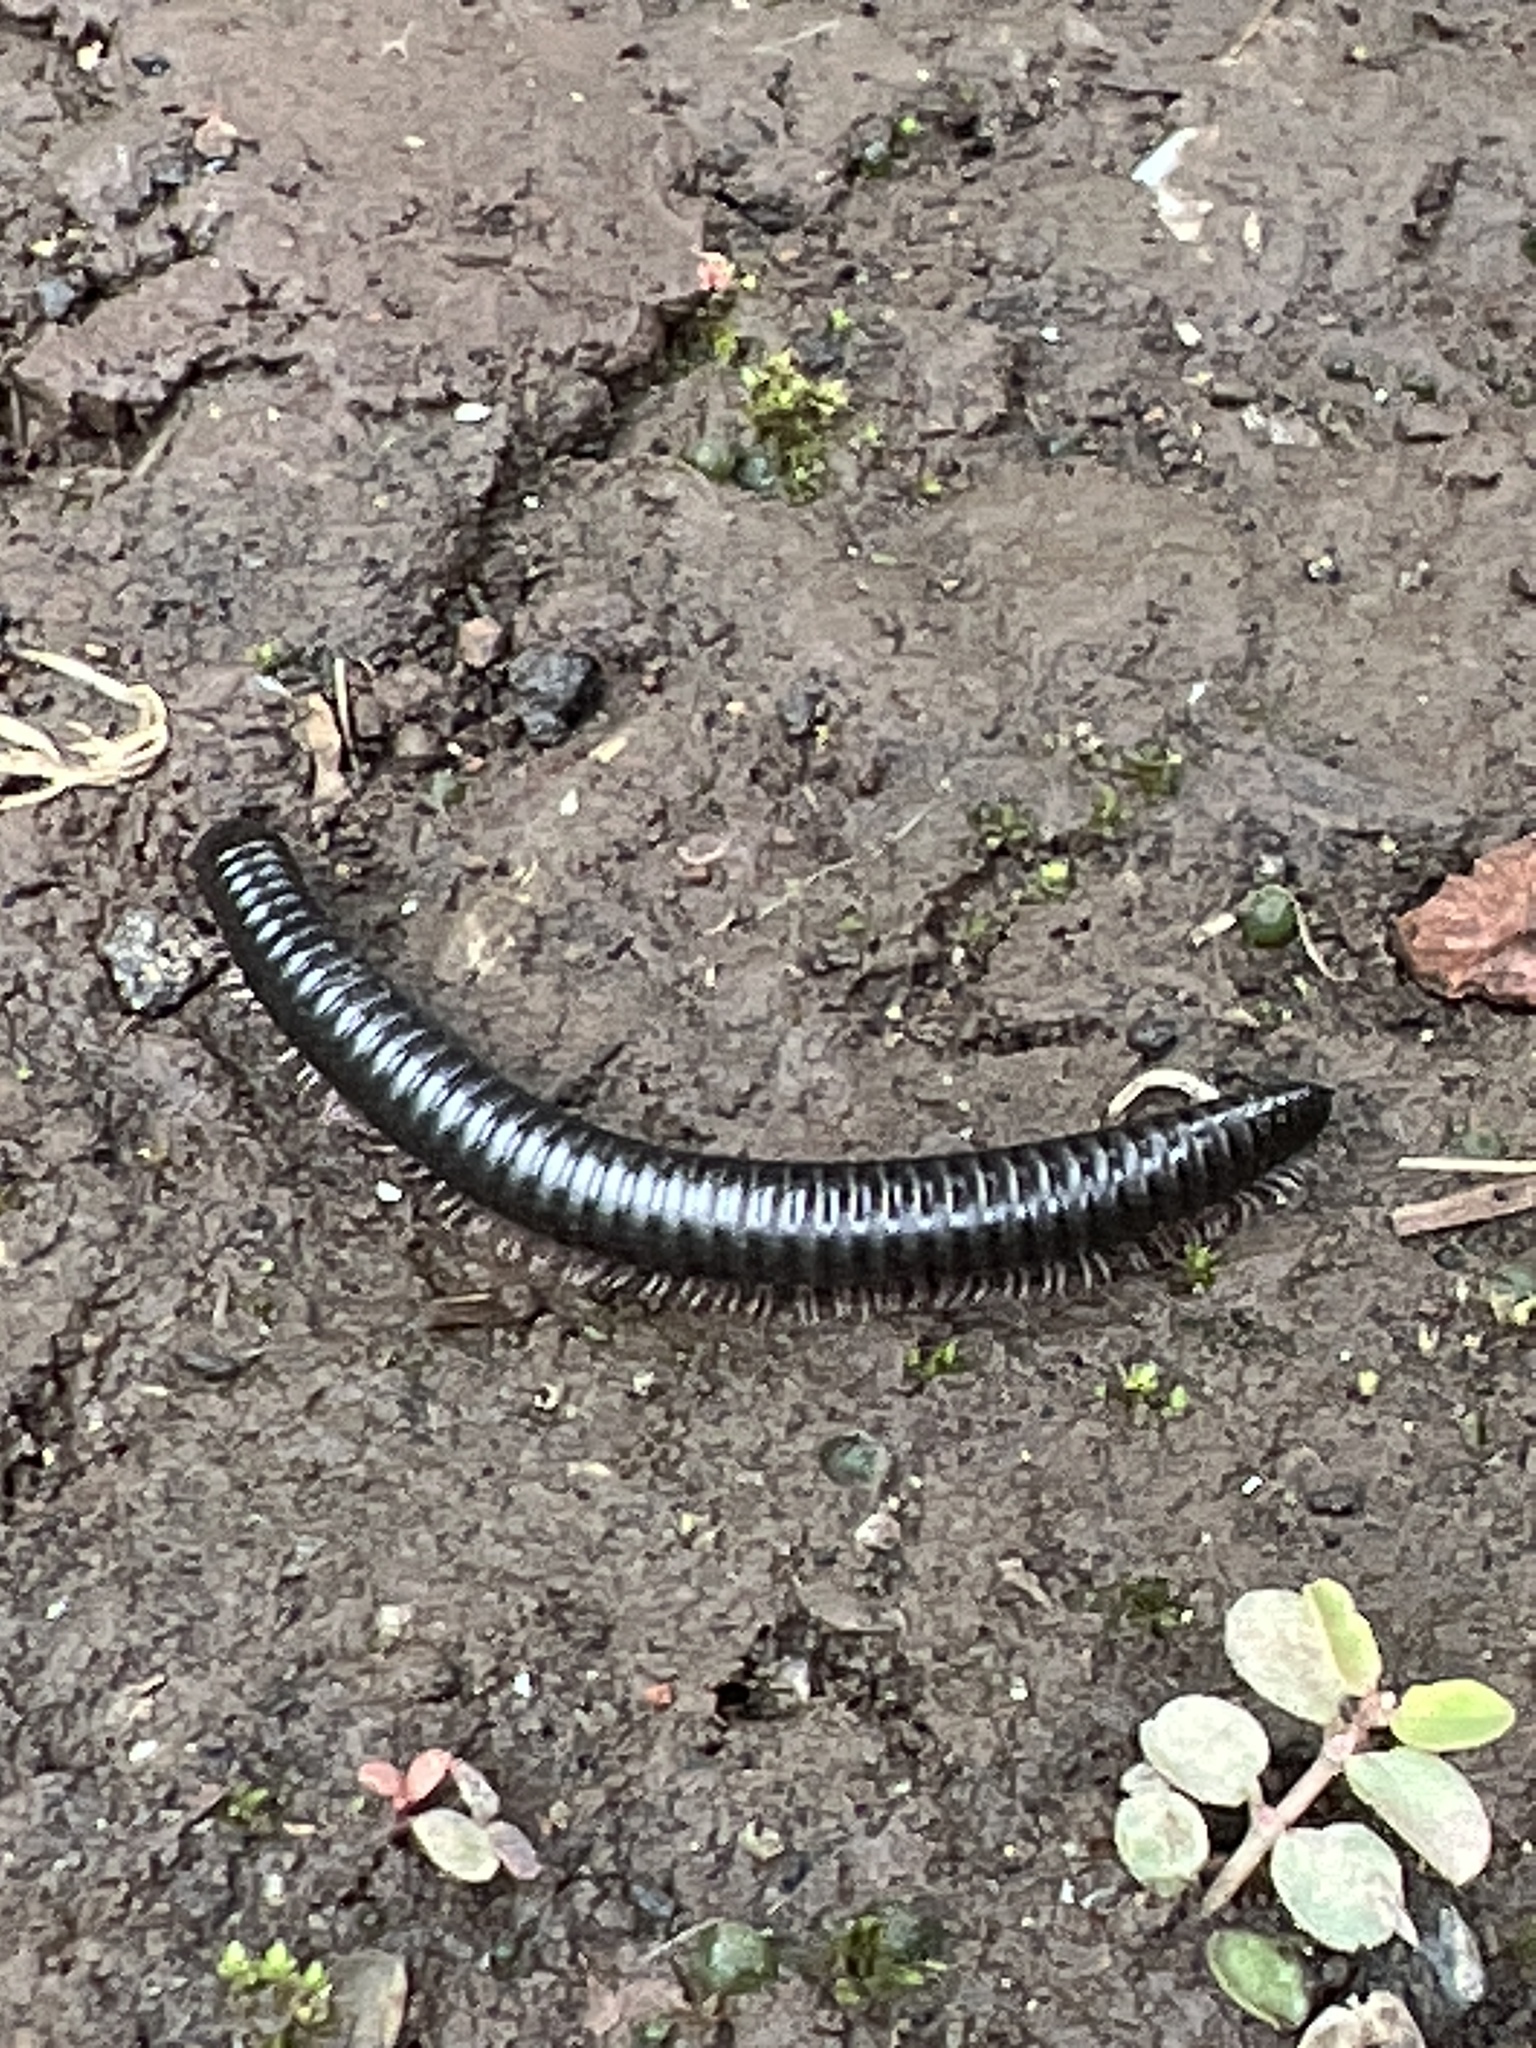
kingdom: Animalia
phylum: Arthropoda
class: Diplopoda
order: Julida
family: Julidae
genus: Ommatoiulus
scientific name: Ommatoiulus moreleti
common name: Portuguese millipede
